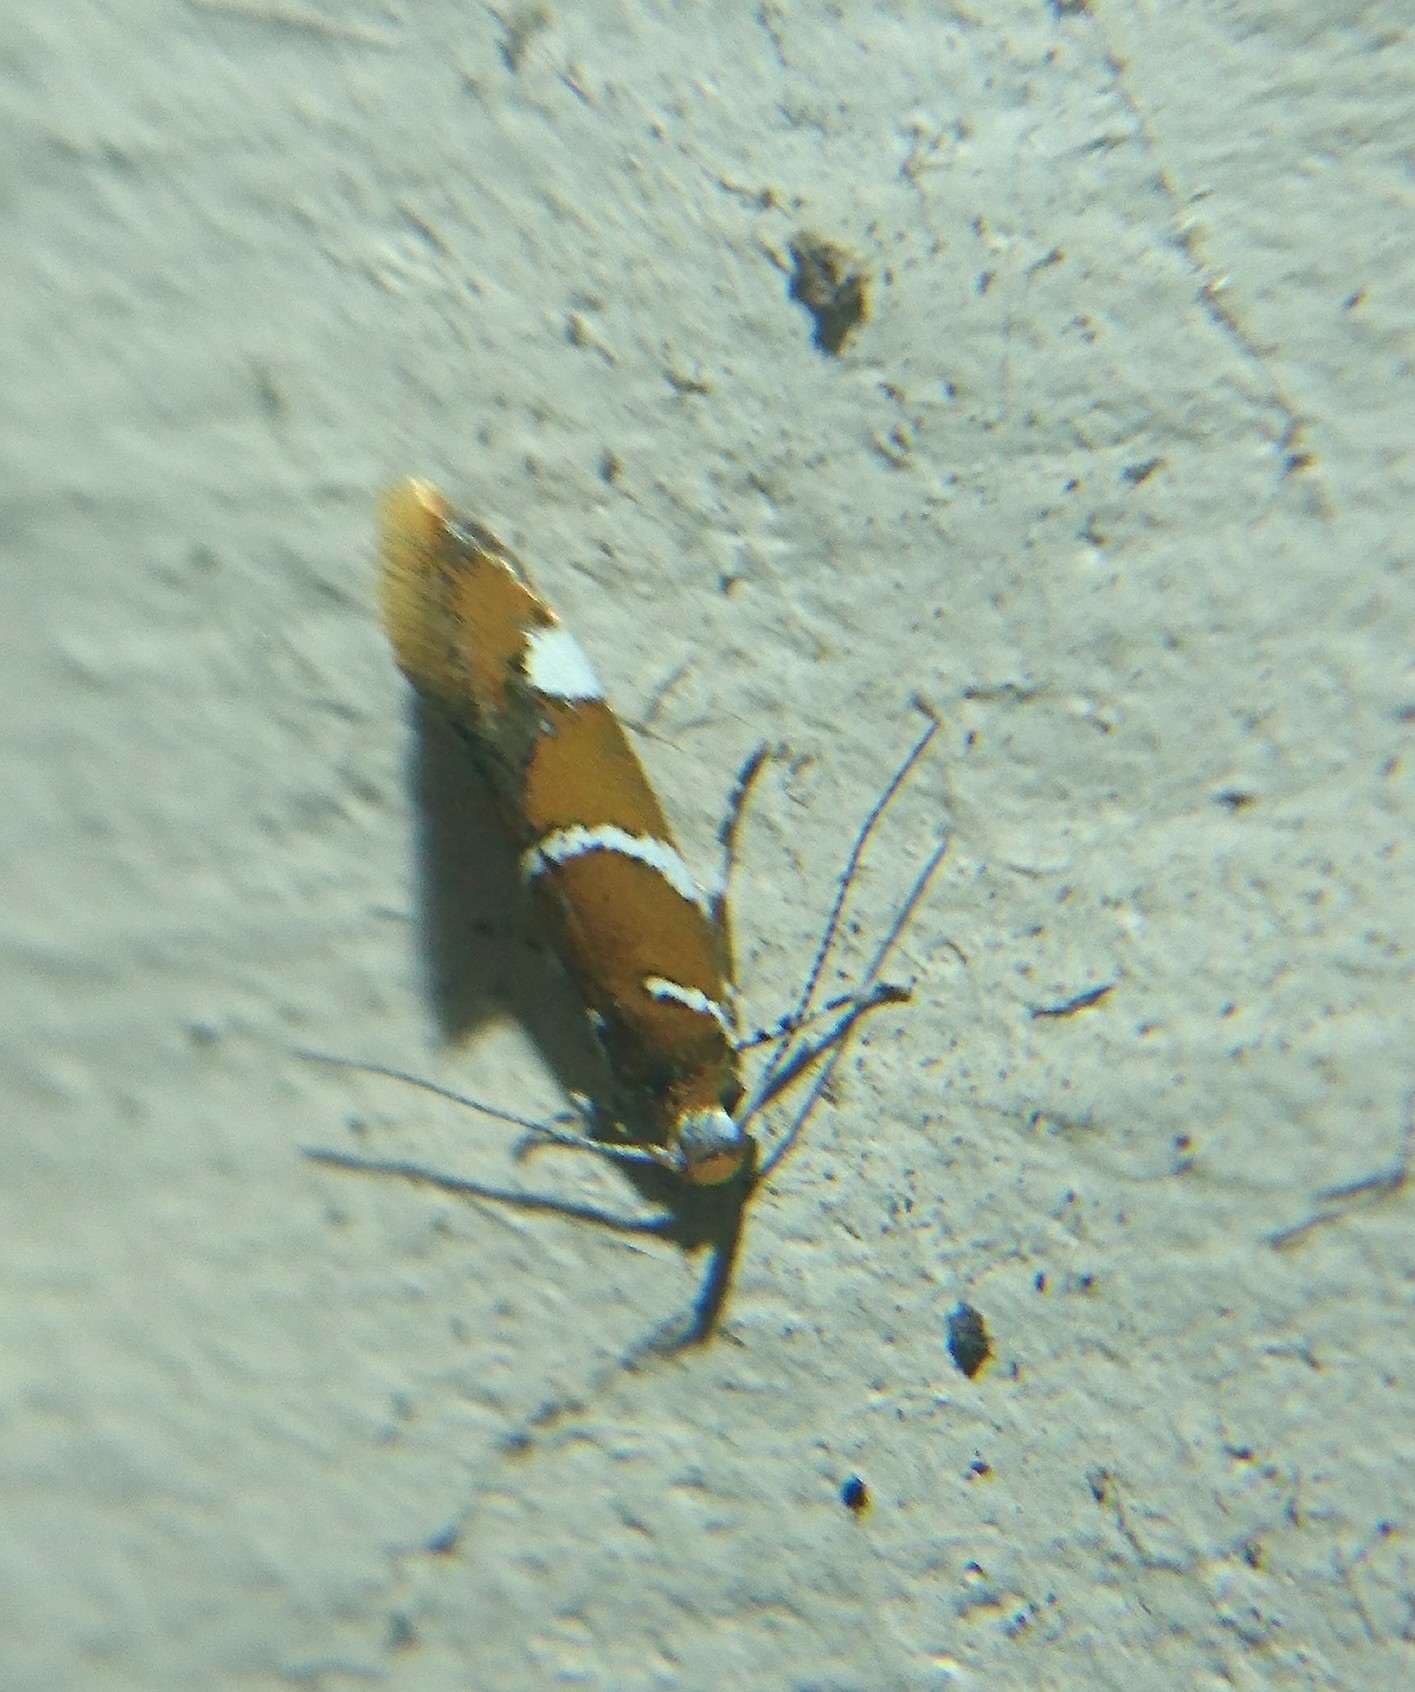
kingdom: Animalia
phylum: Arthropoda
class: Insecta
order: Lepidoptera
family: Oecophoridae
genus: Promalactis
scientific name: Promalactis suzukiella
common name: Moth
